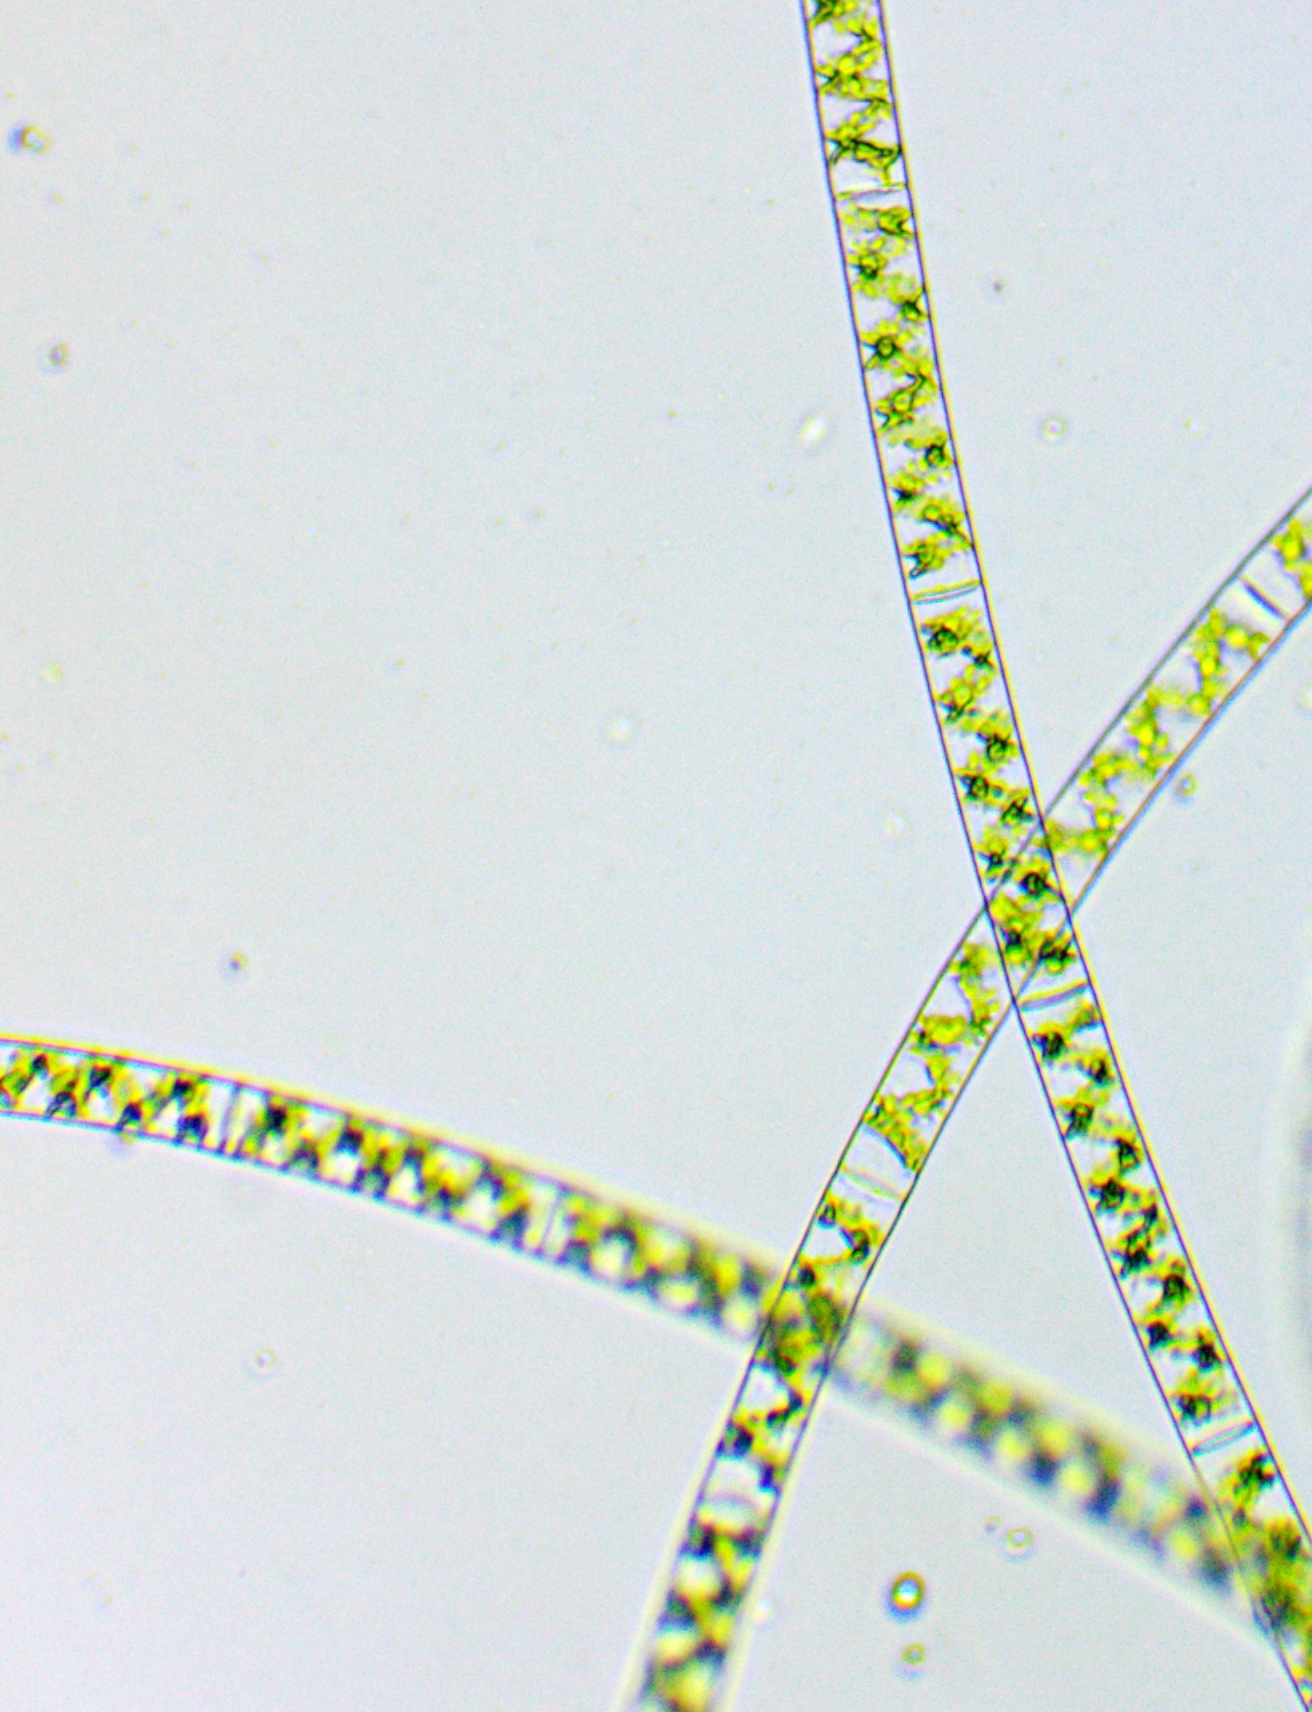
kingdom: Plantae
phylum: Charophyta
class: Zygnematophyceae
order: Zygnematales
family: Zygnemataceae
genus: Spirogyra
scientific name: Spirogyra
